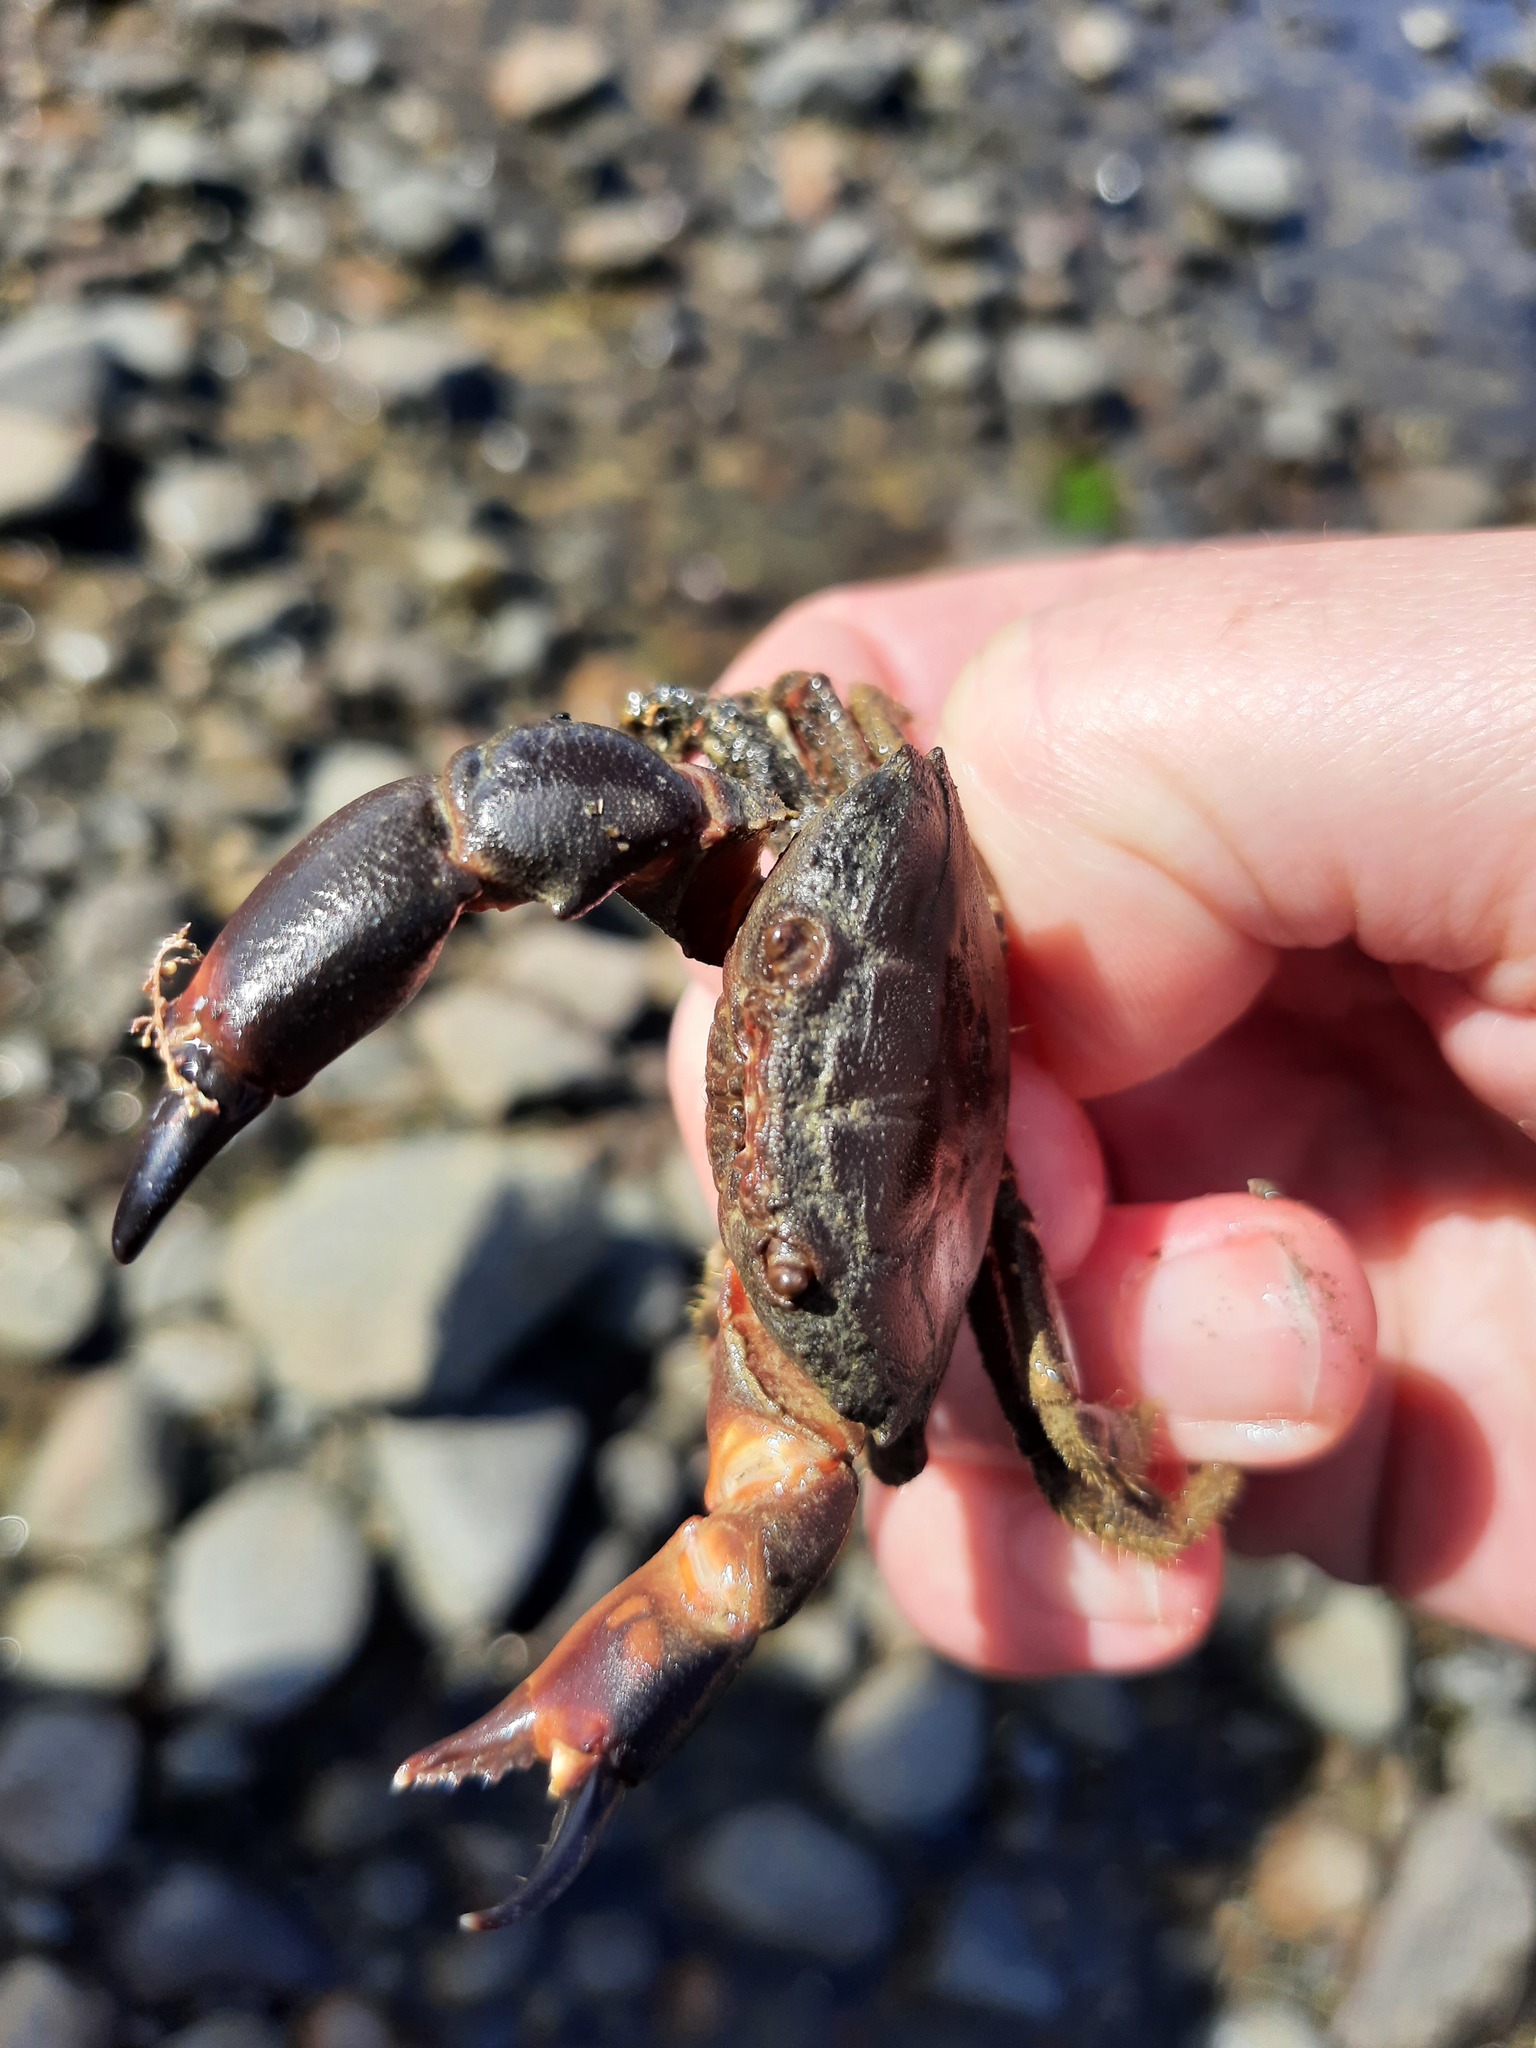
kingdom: Animalia
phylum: Arthropoda
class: Malacostraca
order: Decapoda
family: Oziidae
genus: Ozius
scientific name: Ozius deplanatus
